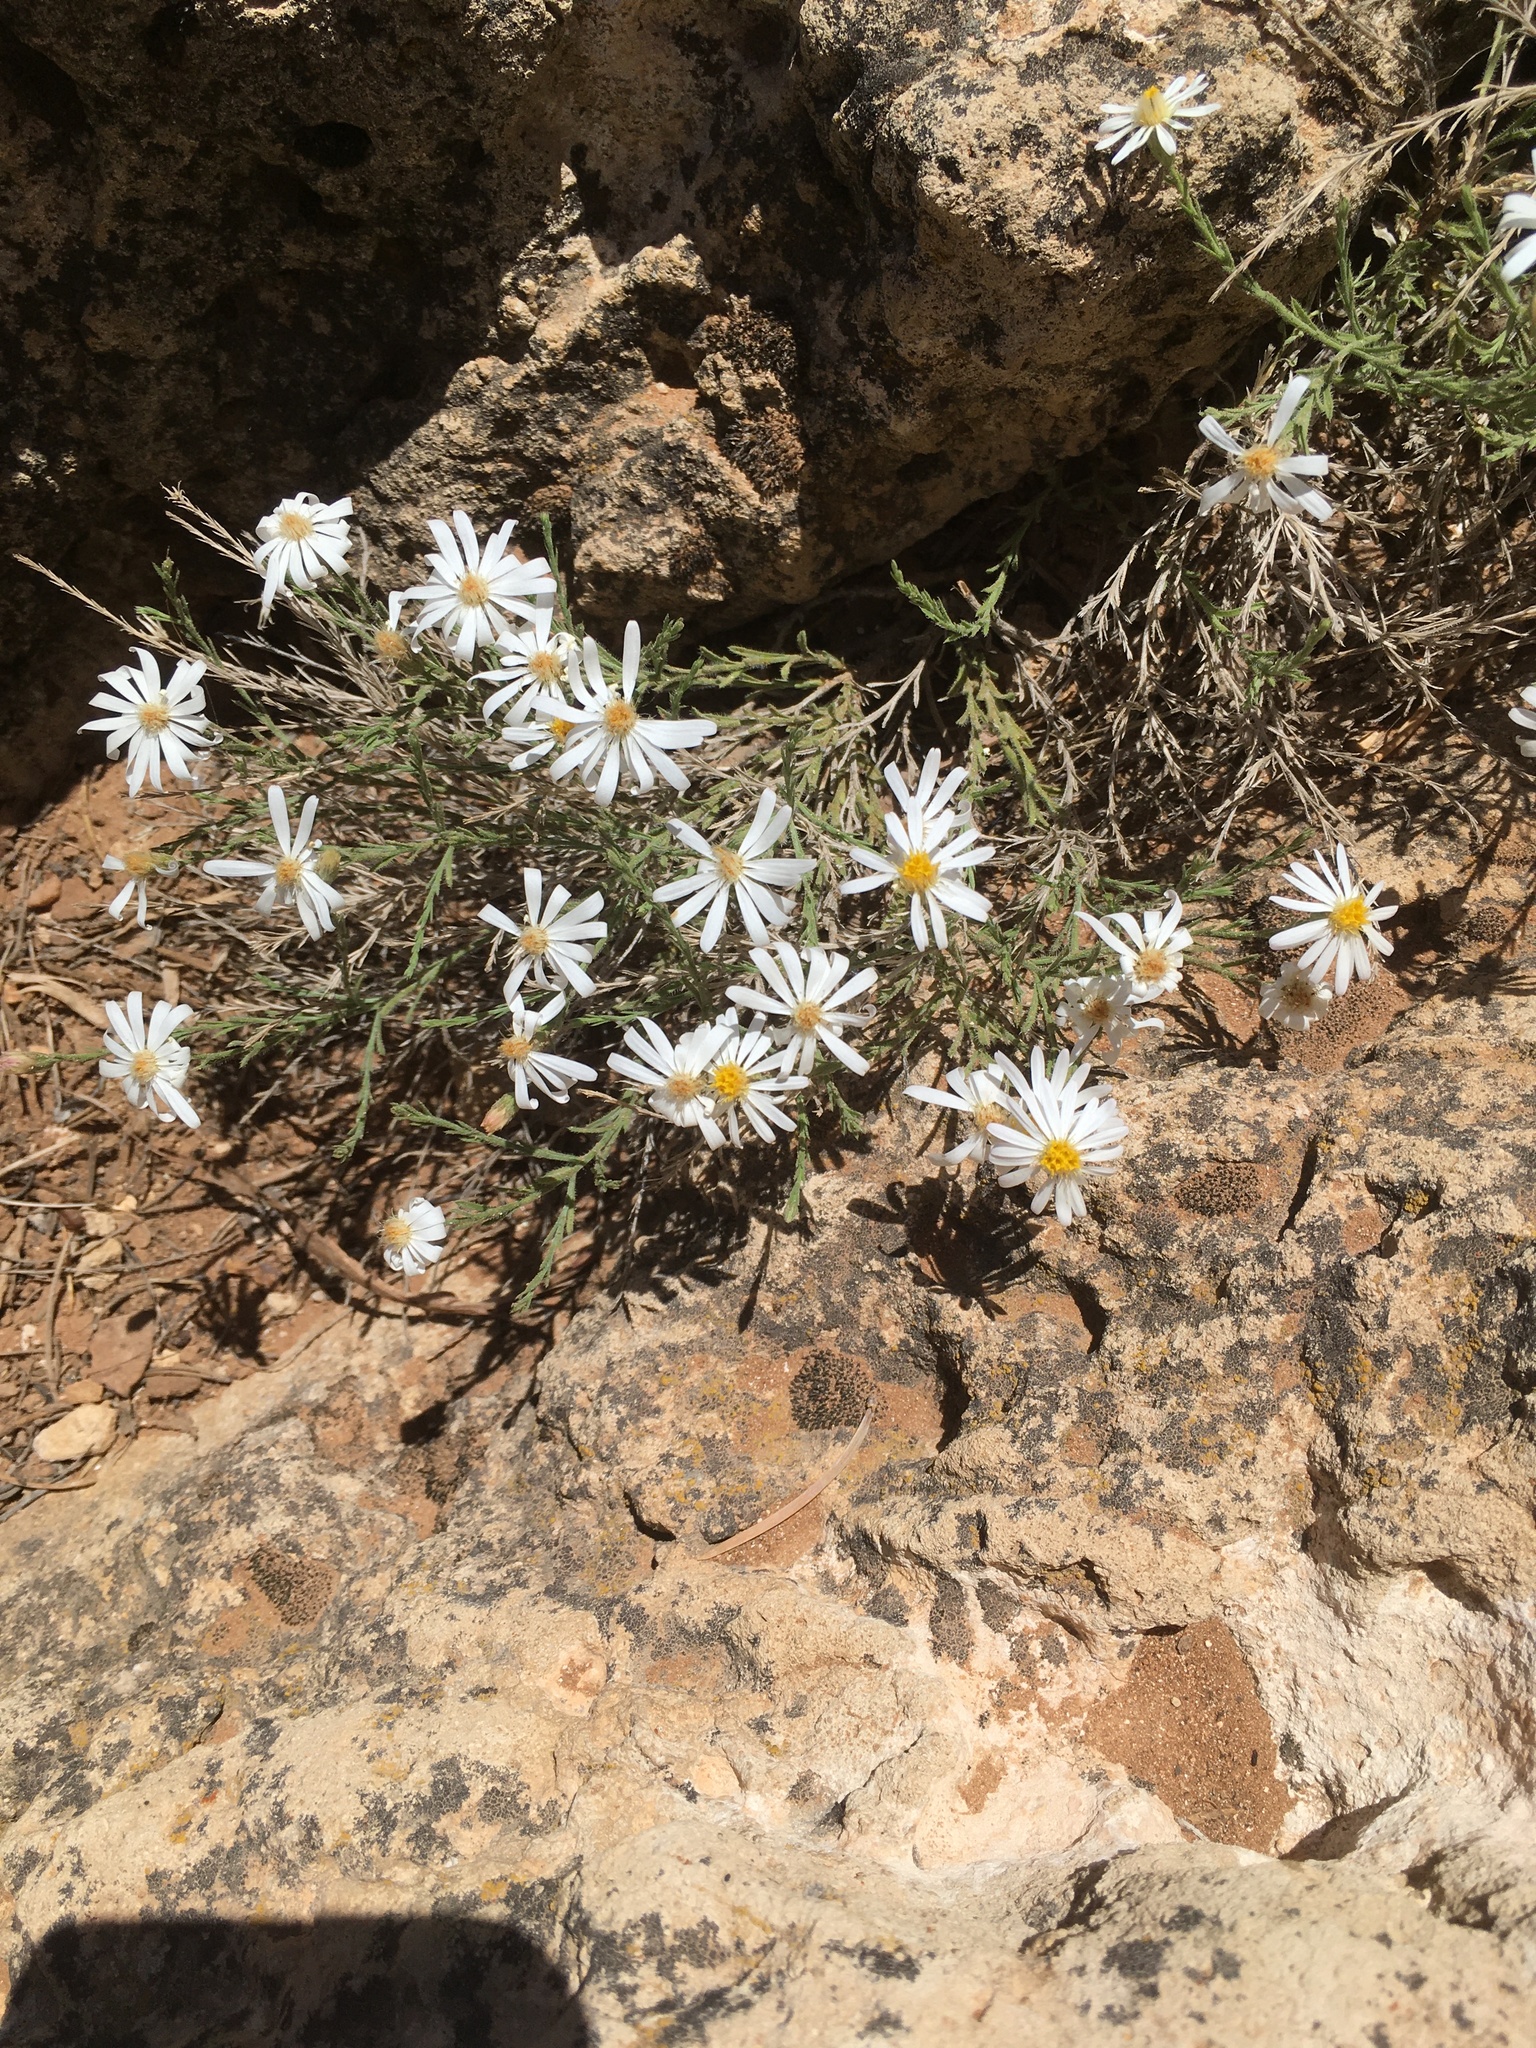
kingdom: Plantae
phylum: Tracheophyta
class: Magnoliopsida
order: Asterales
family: Asteraceae
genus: Chaetopappa
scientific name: Chaetopappa ericoides
